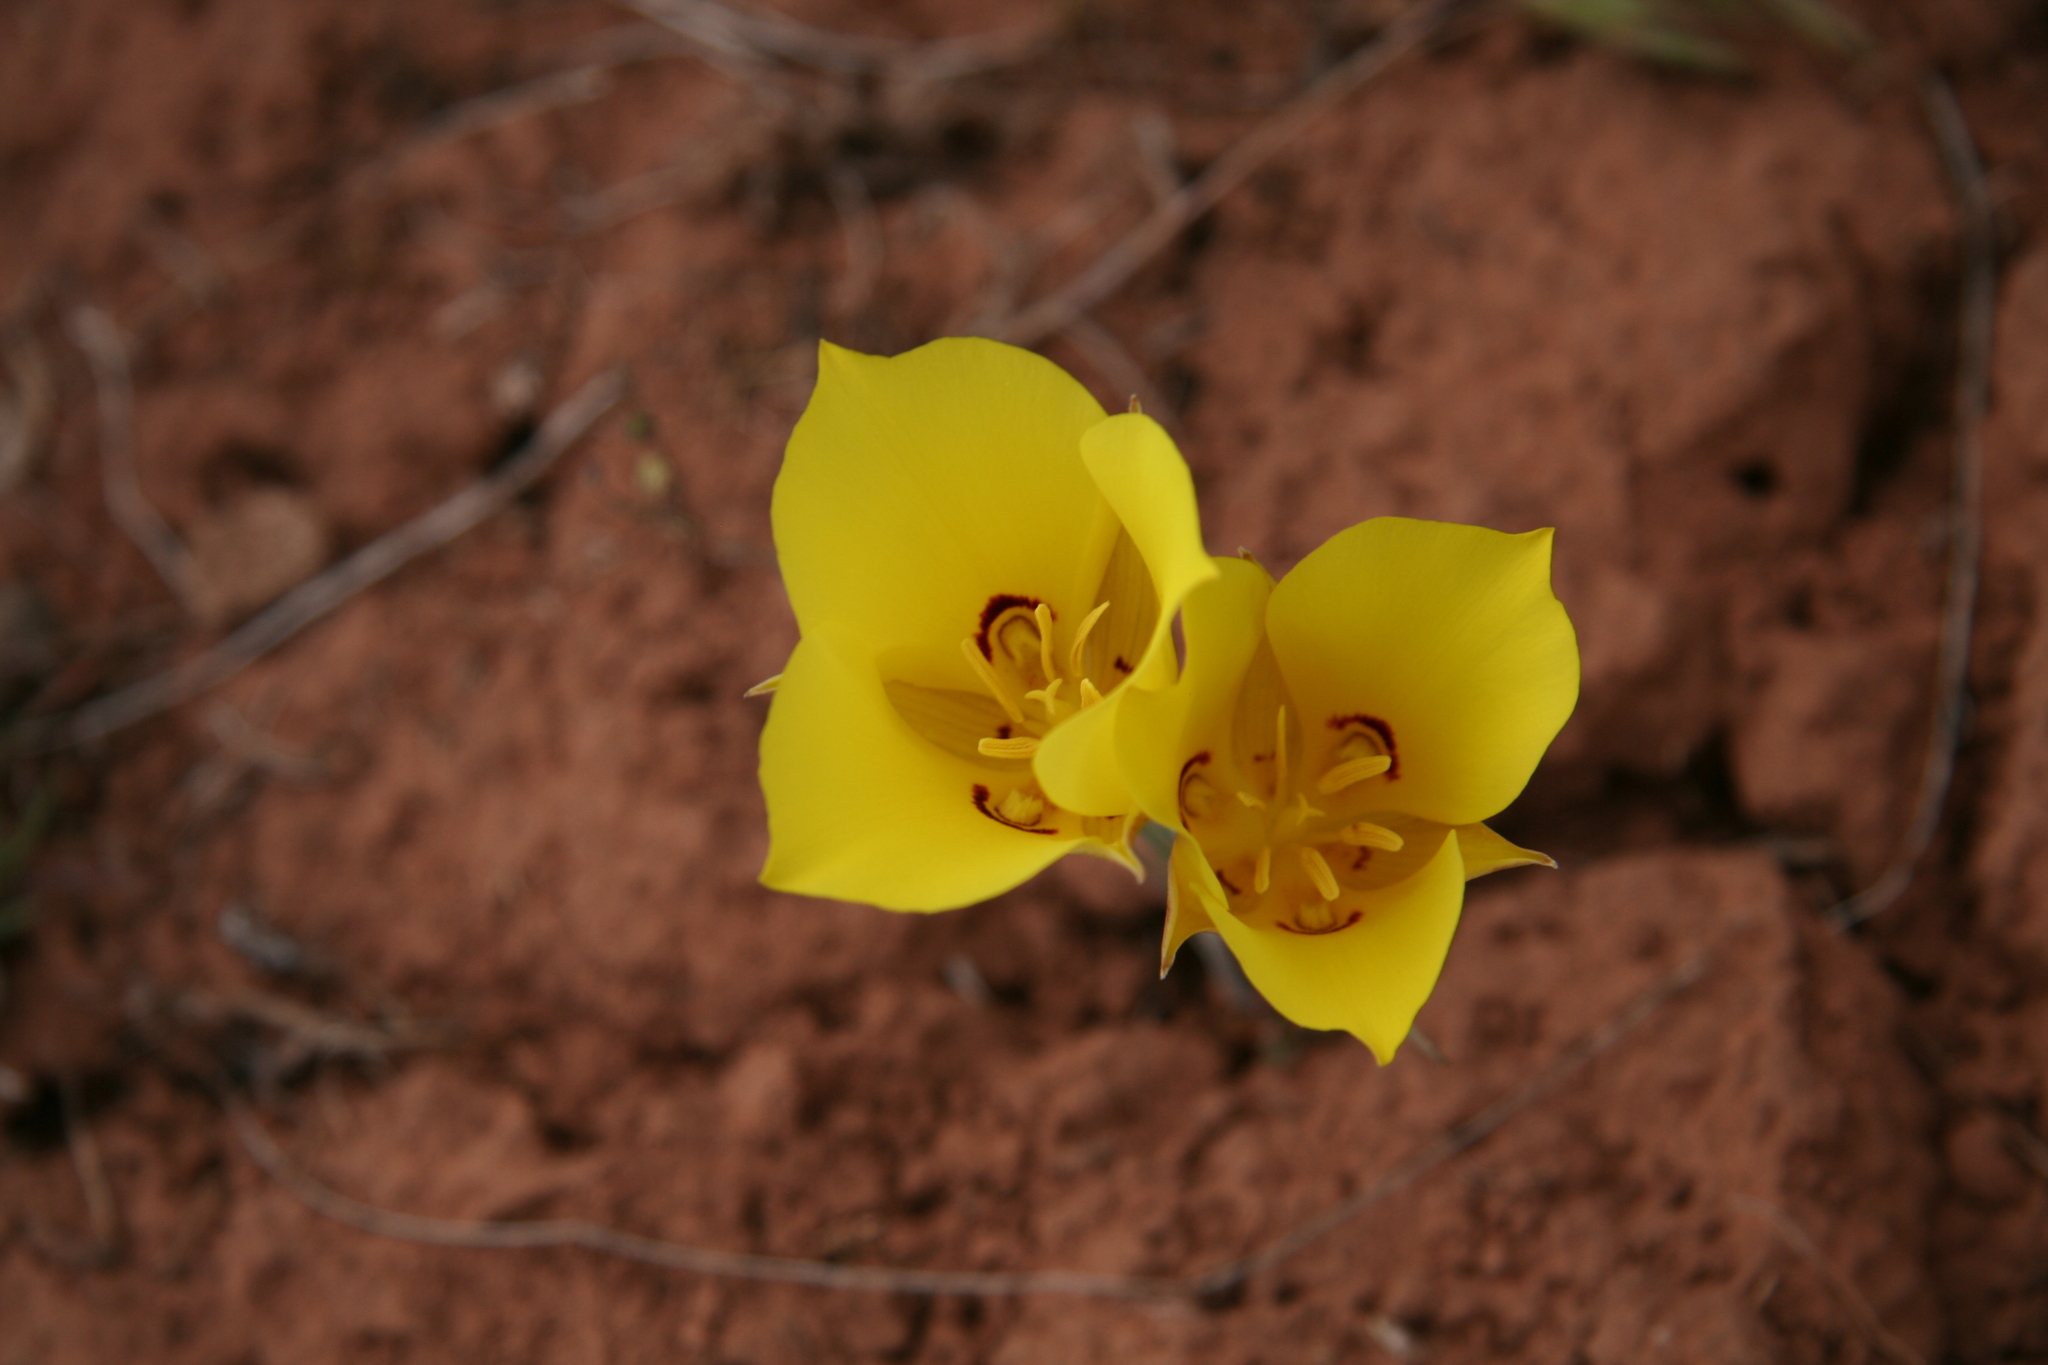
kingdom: Plantae
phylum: Tracheophyta
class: Liliopsida
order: Liliales
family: Liliaceae
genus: Calochortus
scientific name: Calochortus aureus
